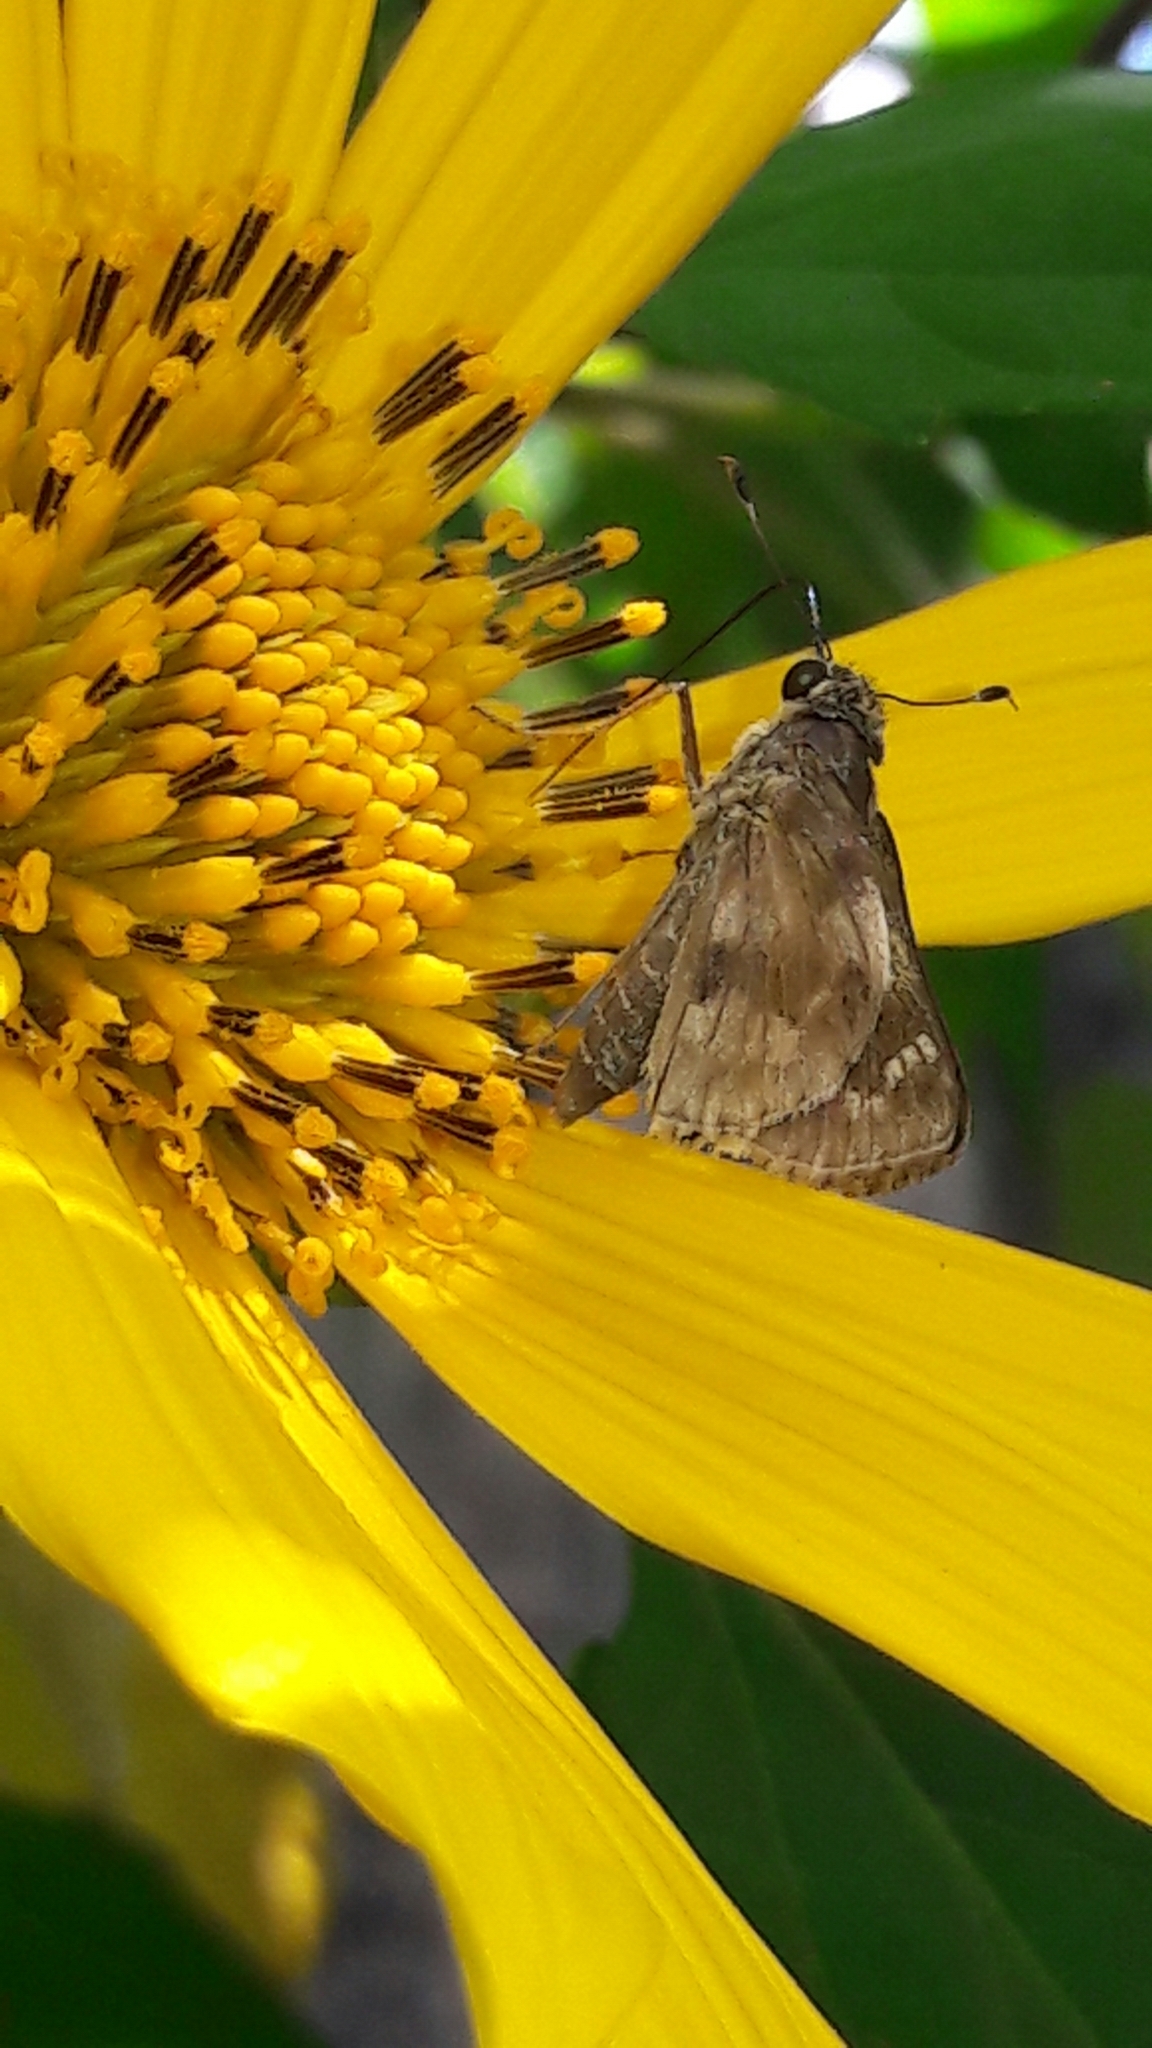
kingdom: Animalia
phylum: Arthropoda
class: Insecta
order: Lepidoptera
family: Hesperiidae
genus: Pompeius
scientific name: Pompeius pompeius
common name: Pompeius skipper
